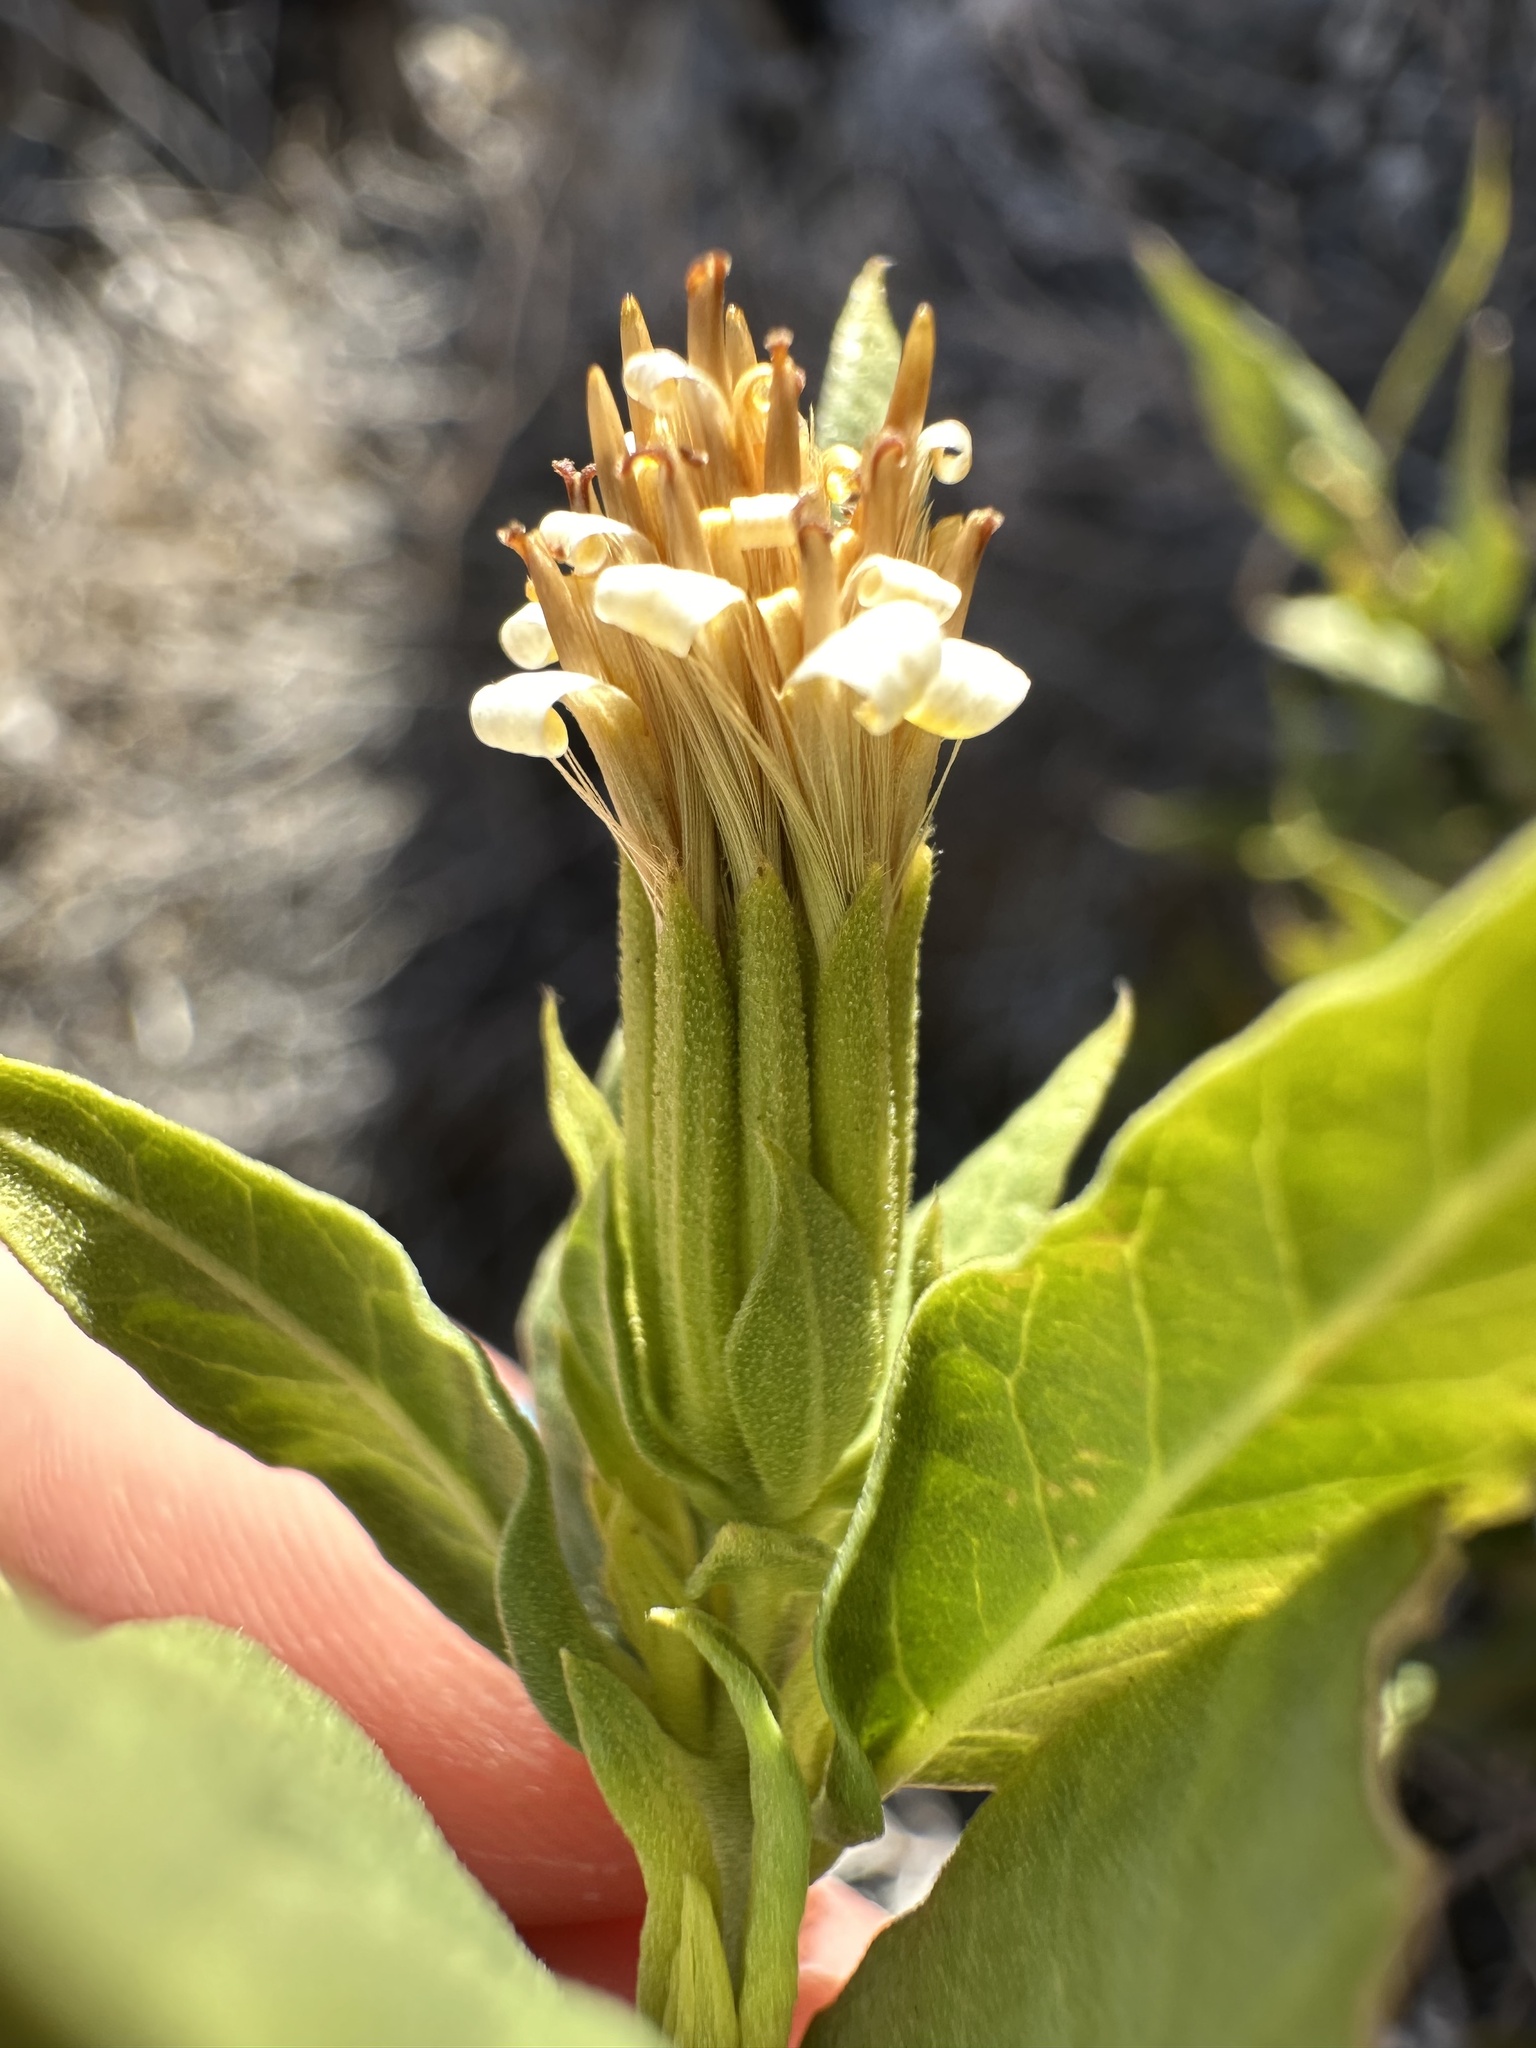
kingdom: Plantae
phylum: Tracheophyta
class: Magnoliopsida
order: Asterales
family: Asteraceae
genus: Trixis
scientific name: Trixis californica
